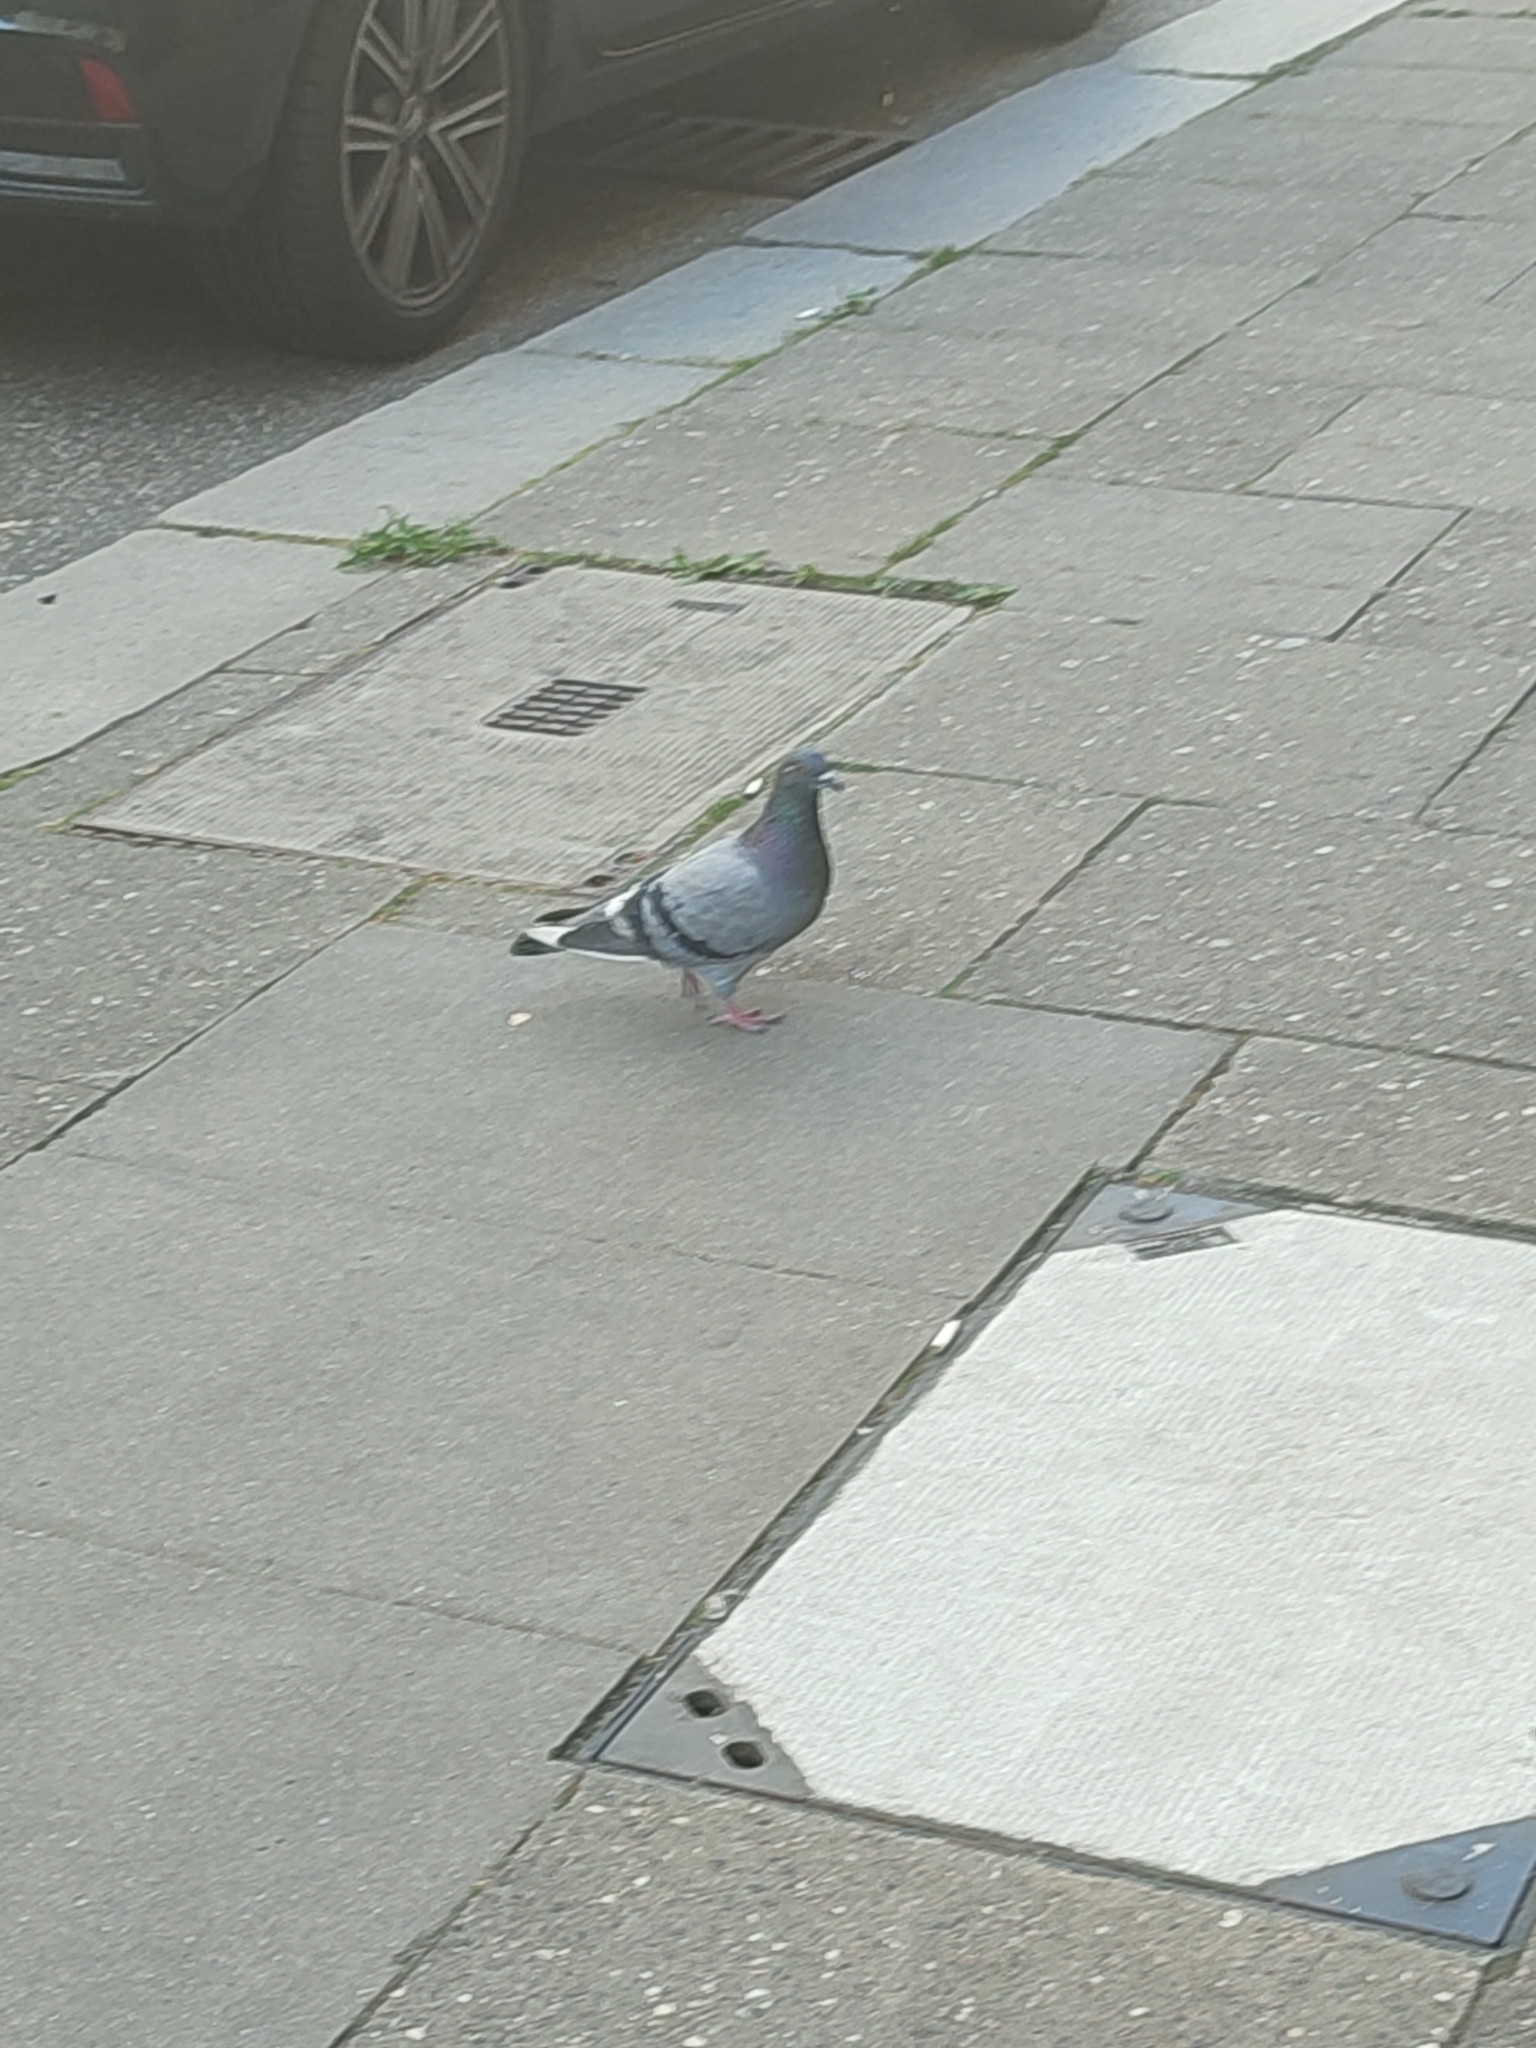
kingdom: Animalia
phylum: Chordata
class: Aves
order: Columbiformes
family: Columbidae
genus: Columba
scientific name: Columba livia
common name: Rock pigeon
